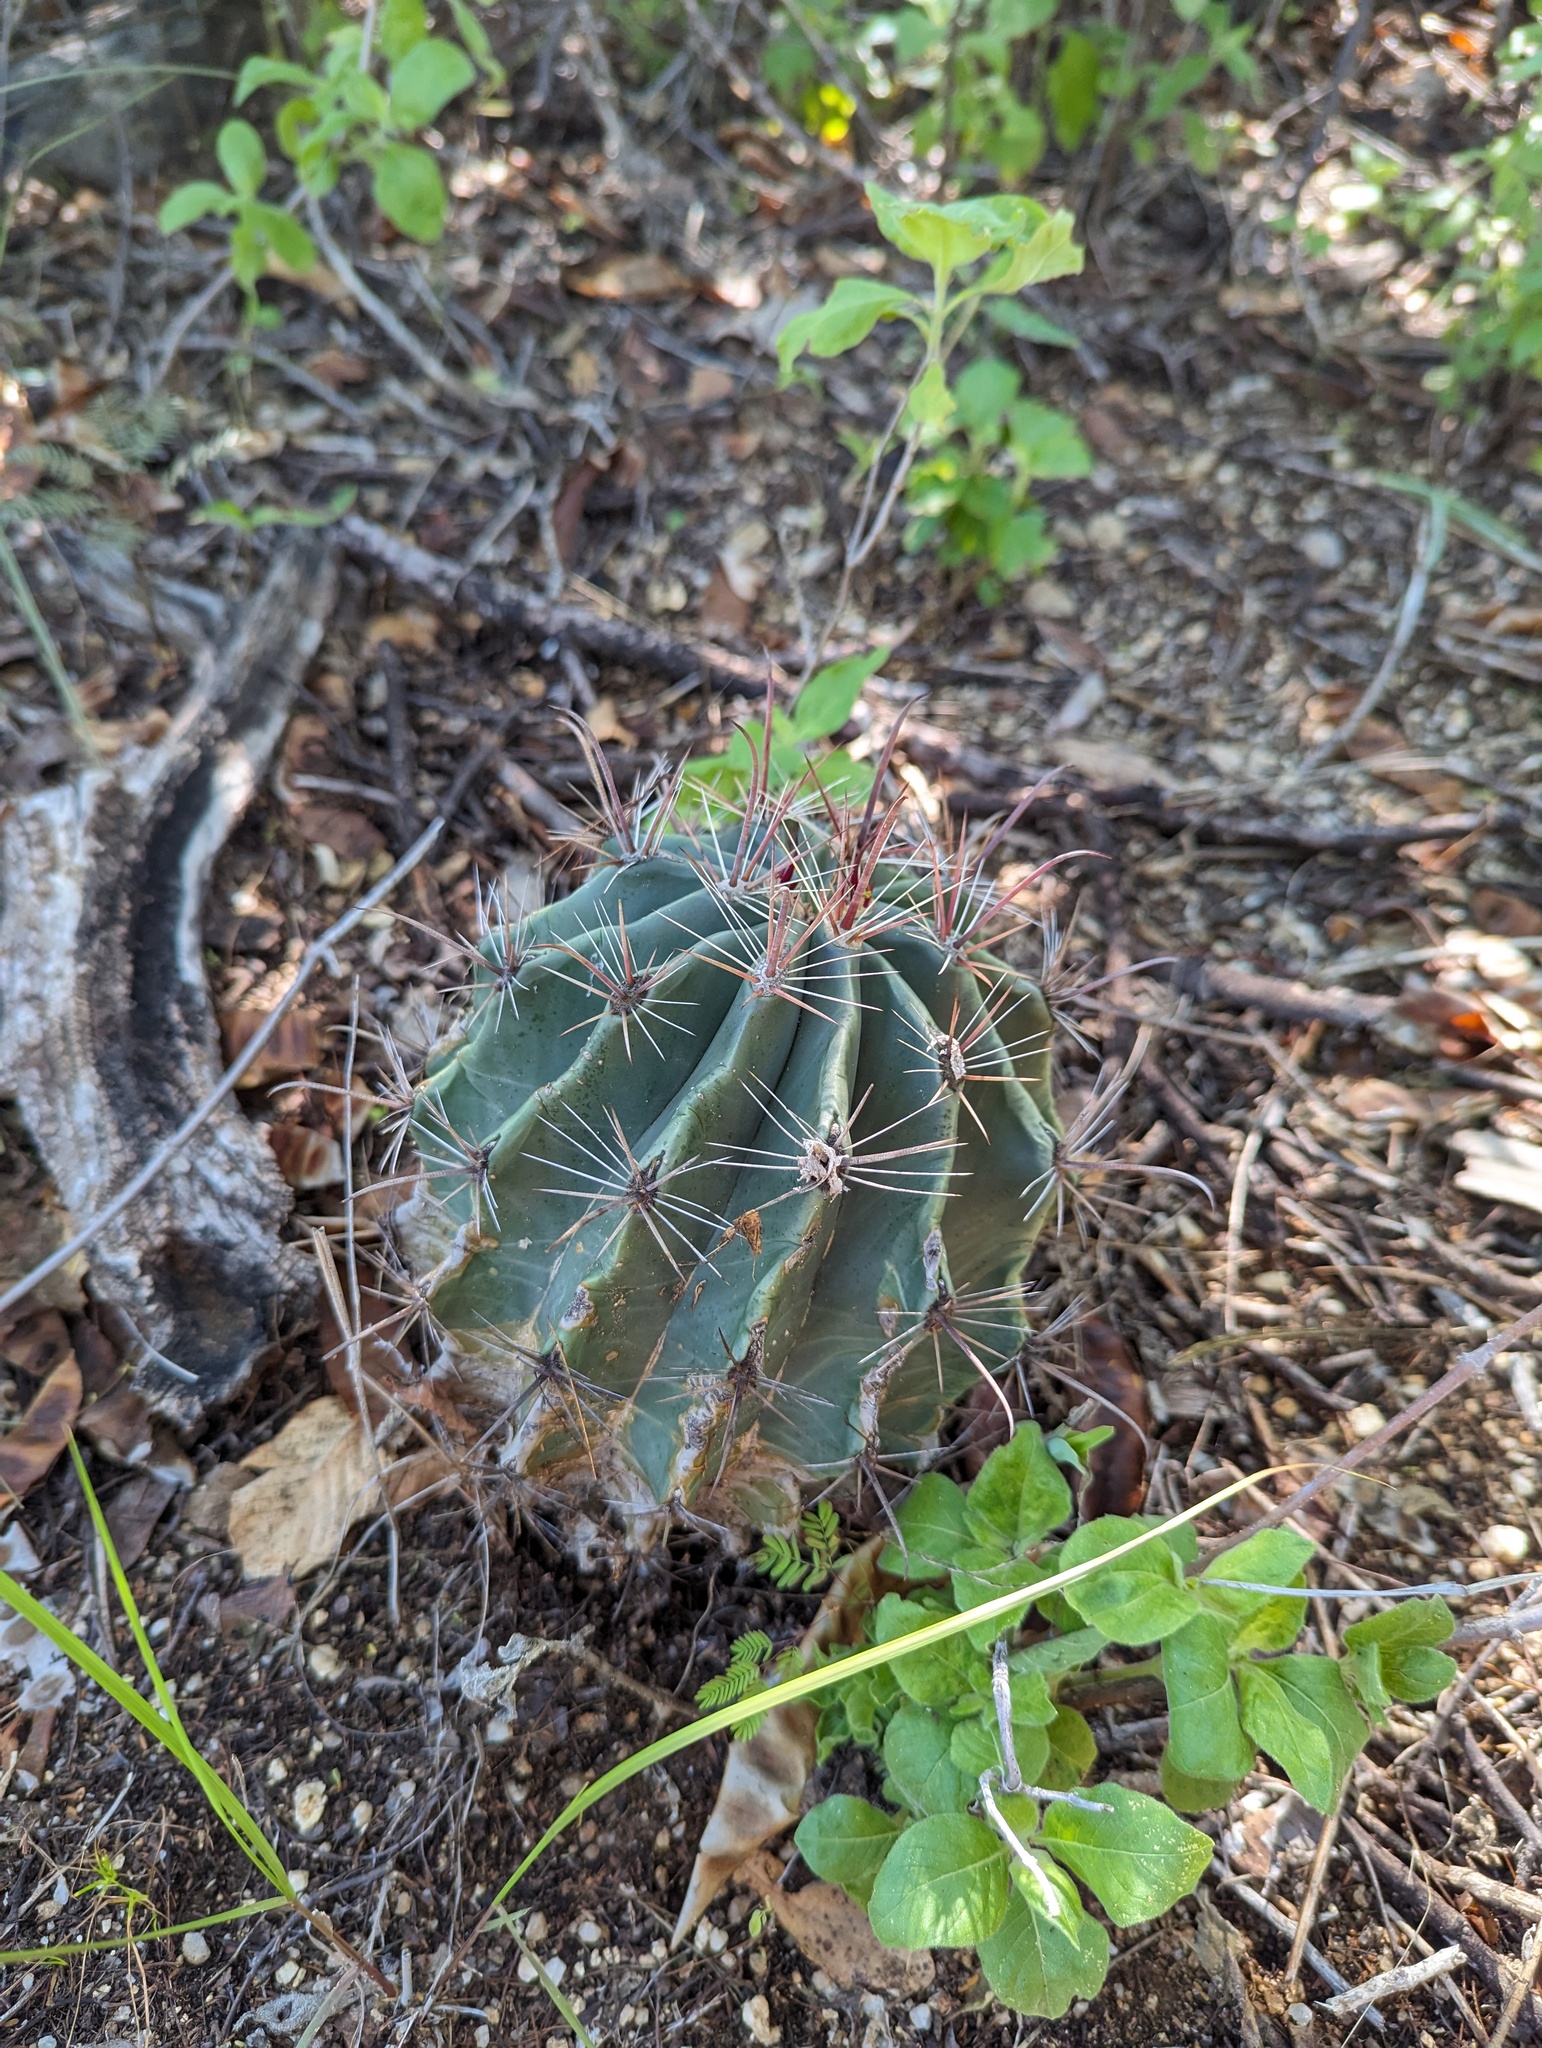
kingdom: Plantae
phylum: Tracheophyta
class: Magnoliopsida
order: Caryophyllales
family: Cactaceae
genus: Ferocactus
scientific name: Ferocactus townsendianus
